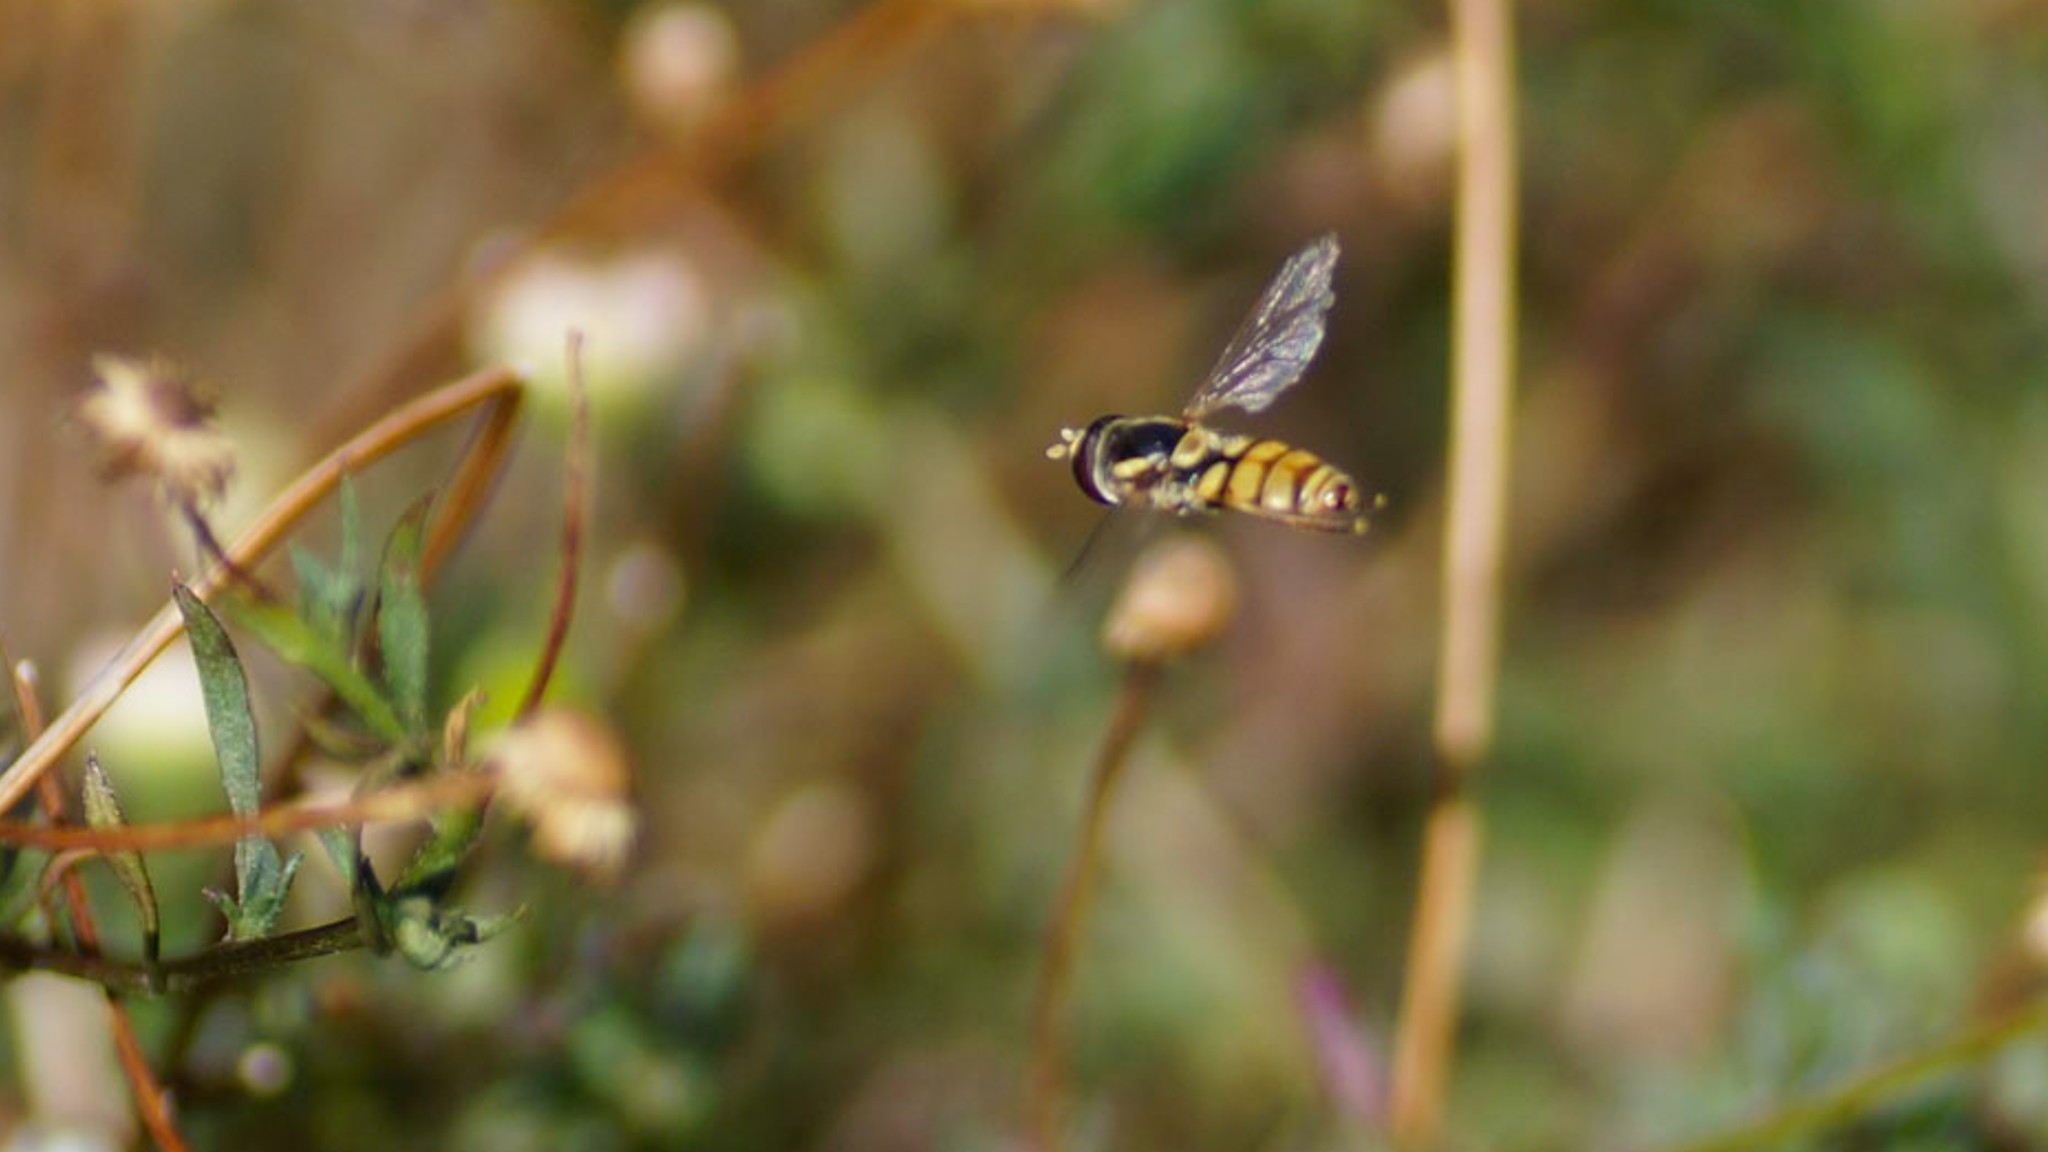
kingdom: Animalia
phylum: Arthropoda
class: Insecta
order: Diptera
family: Syrphidae
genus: Simosyrphus
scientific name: Simosyrphus grandicornis
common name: Hoverfly
